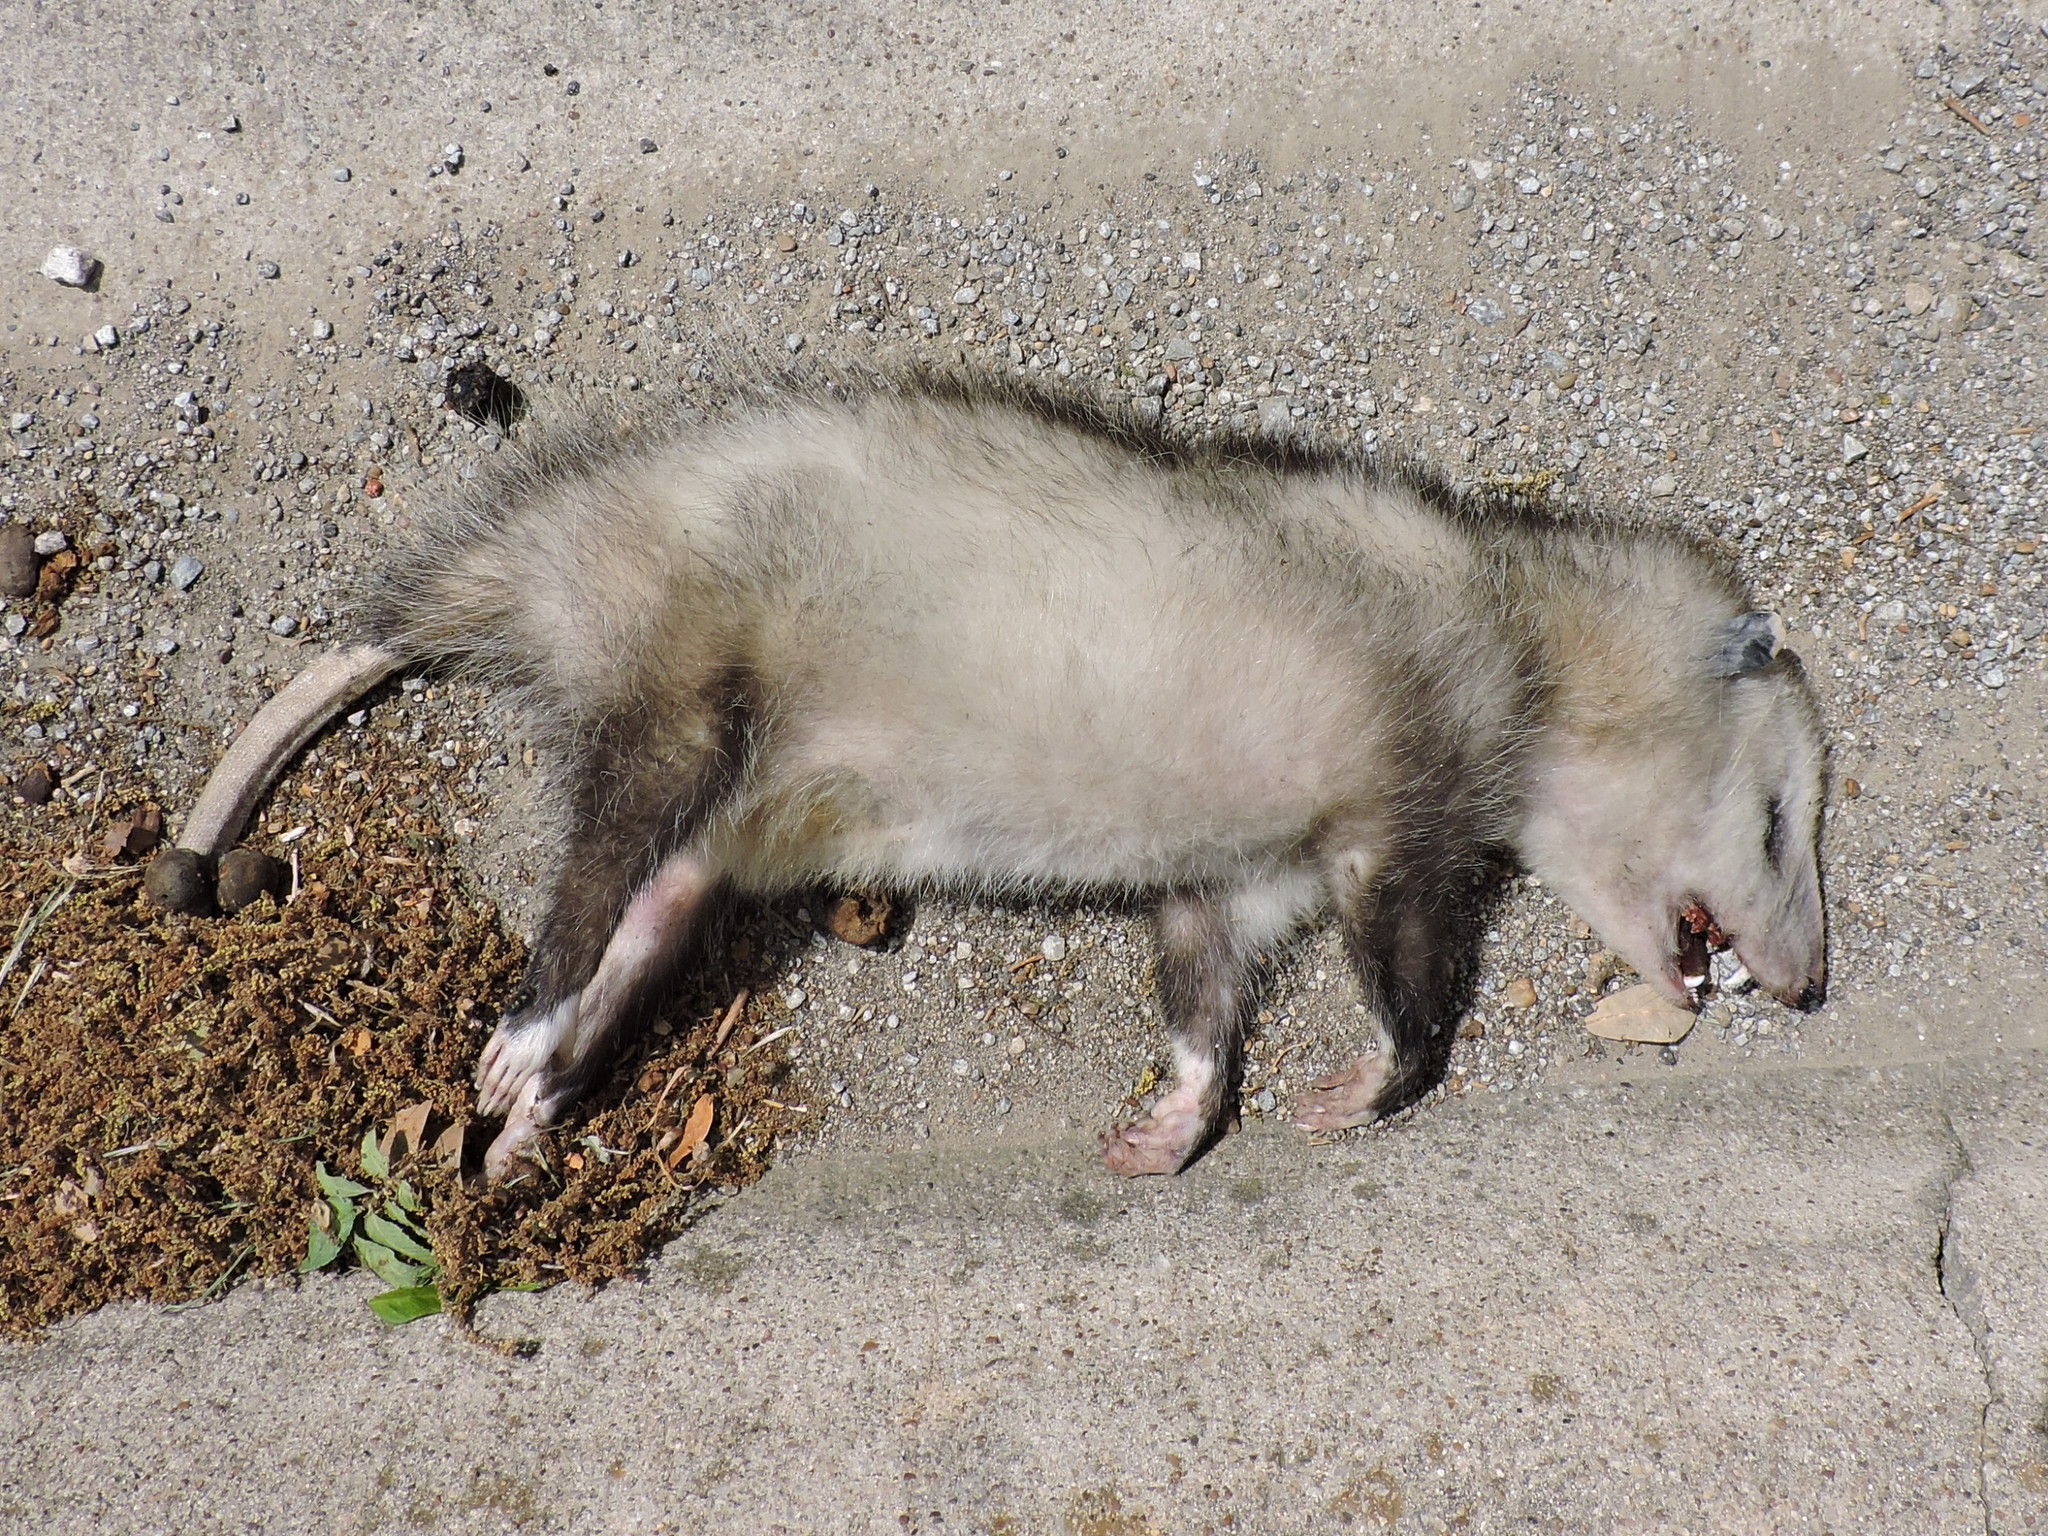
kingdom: Animalia
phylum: Chordata
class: Mammalia
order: Didelphimorphia
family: Didelphidae
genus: Didelphis
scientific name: Didelphis virginiana
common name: Virginia opossum
